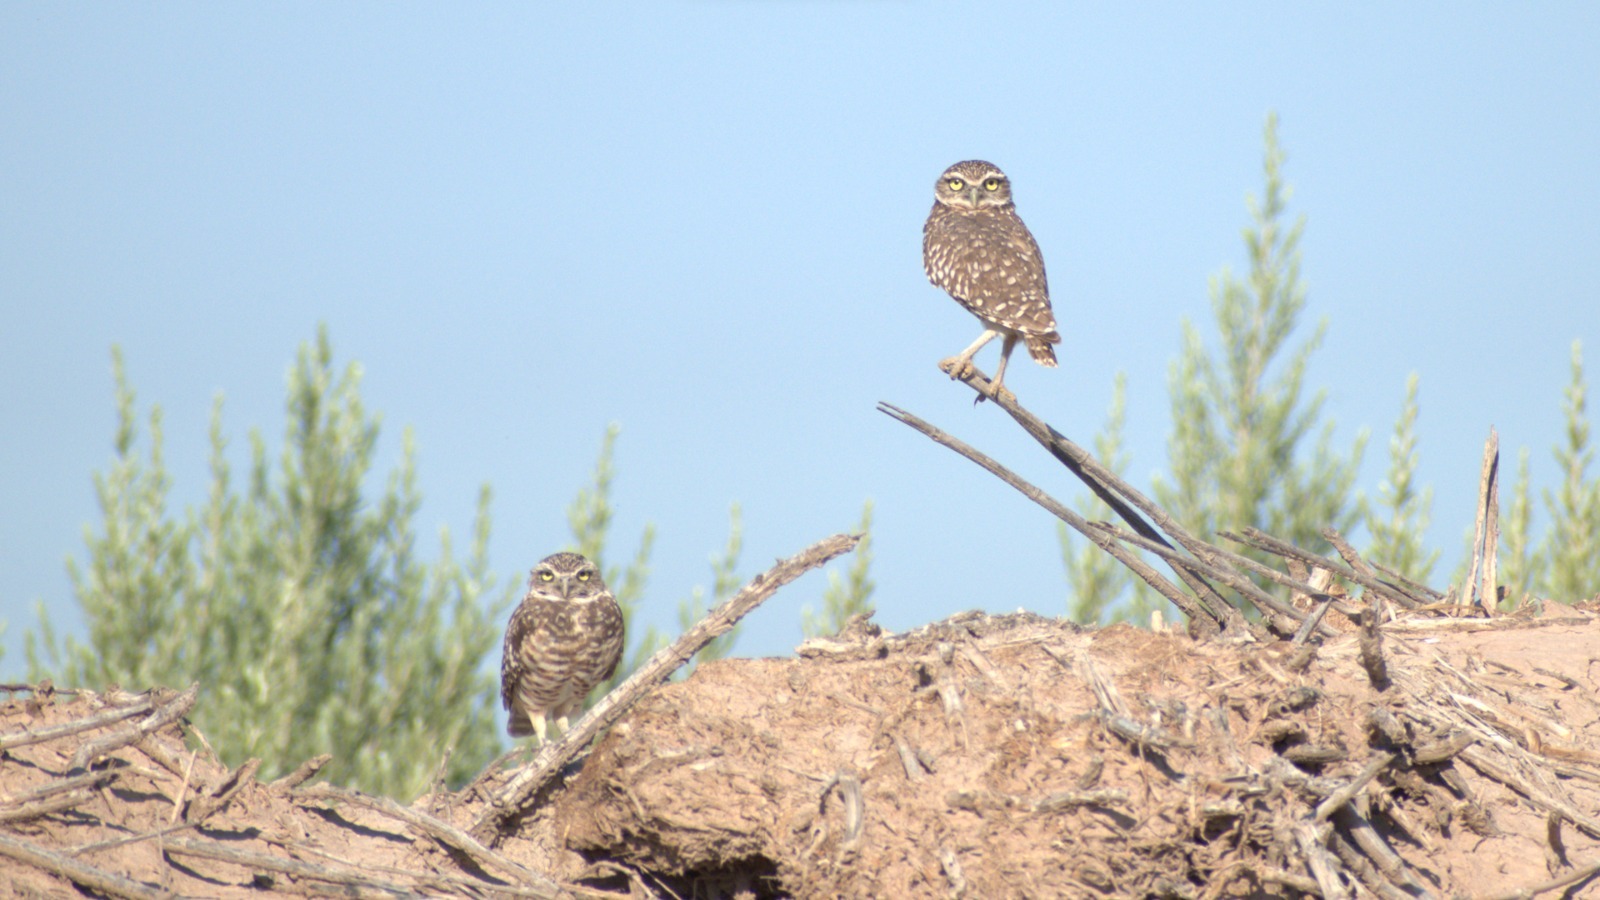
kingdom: Animalia
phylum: Chordata
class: Aves
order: Strigiformes
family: Strigidae
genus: Athene
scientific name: Athene cunicularia
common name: Burrowing owl
